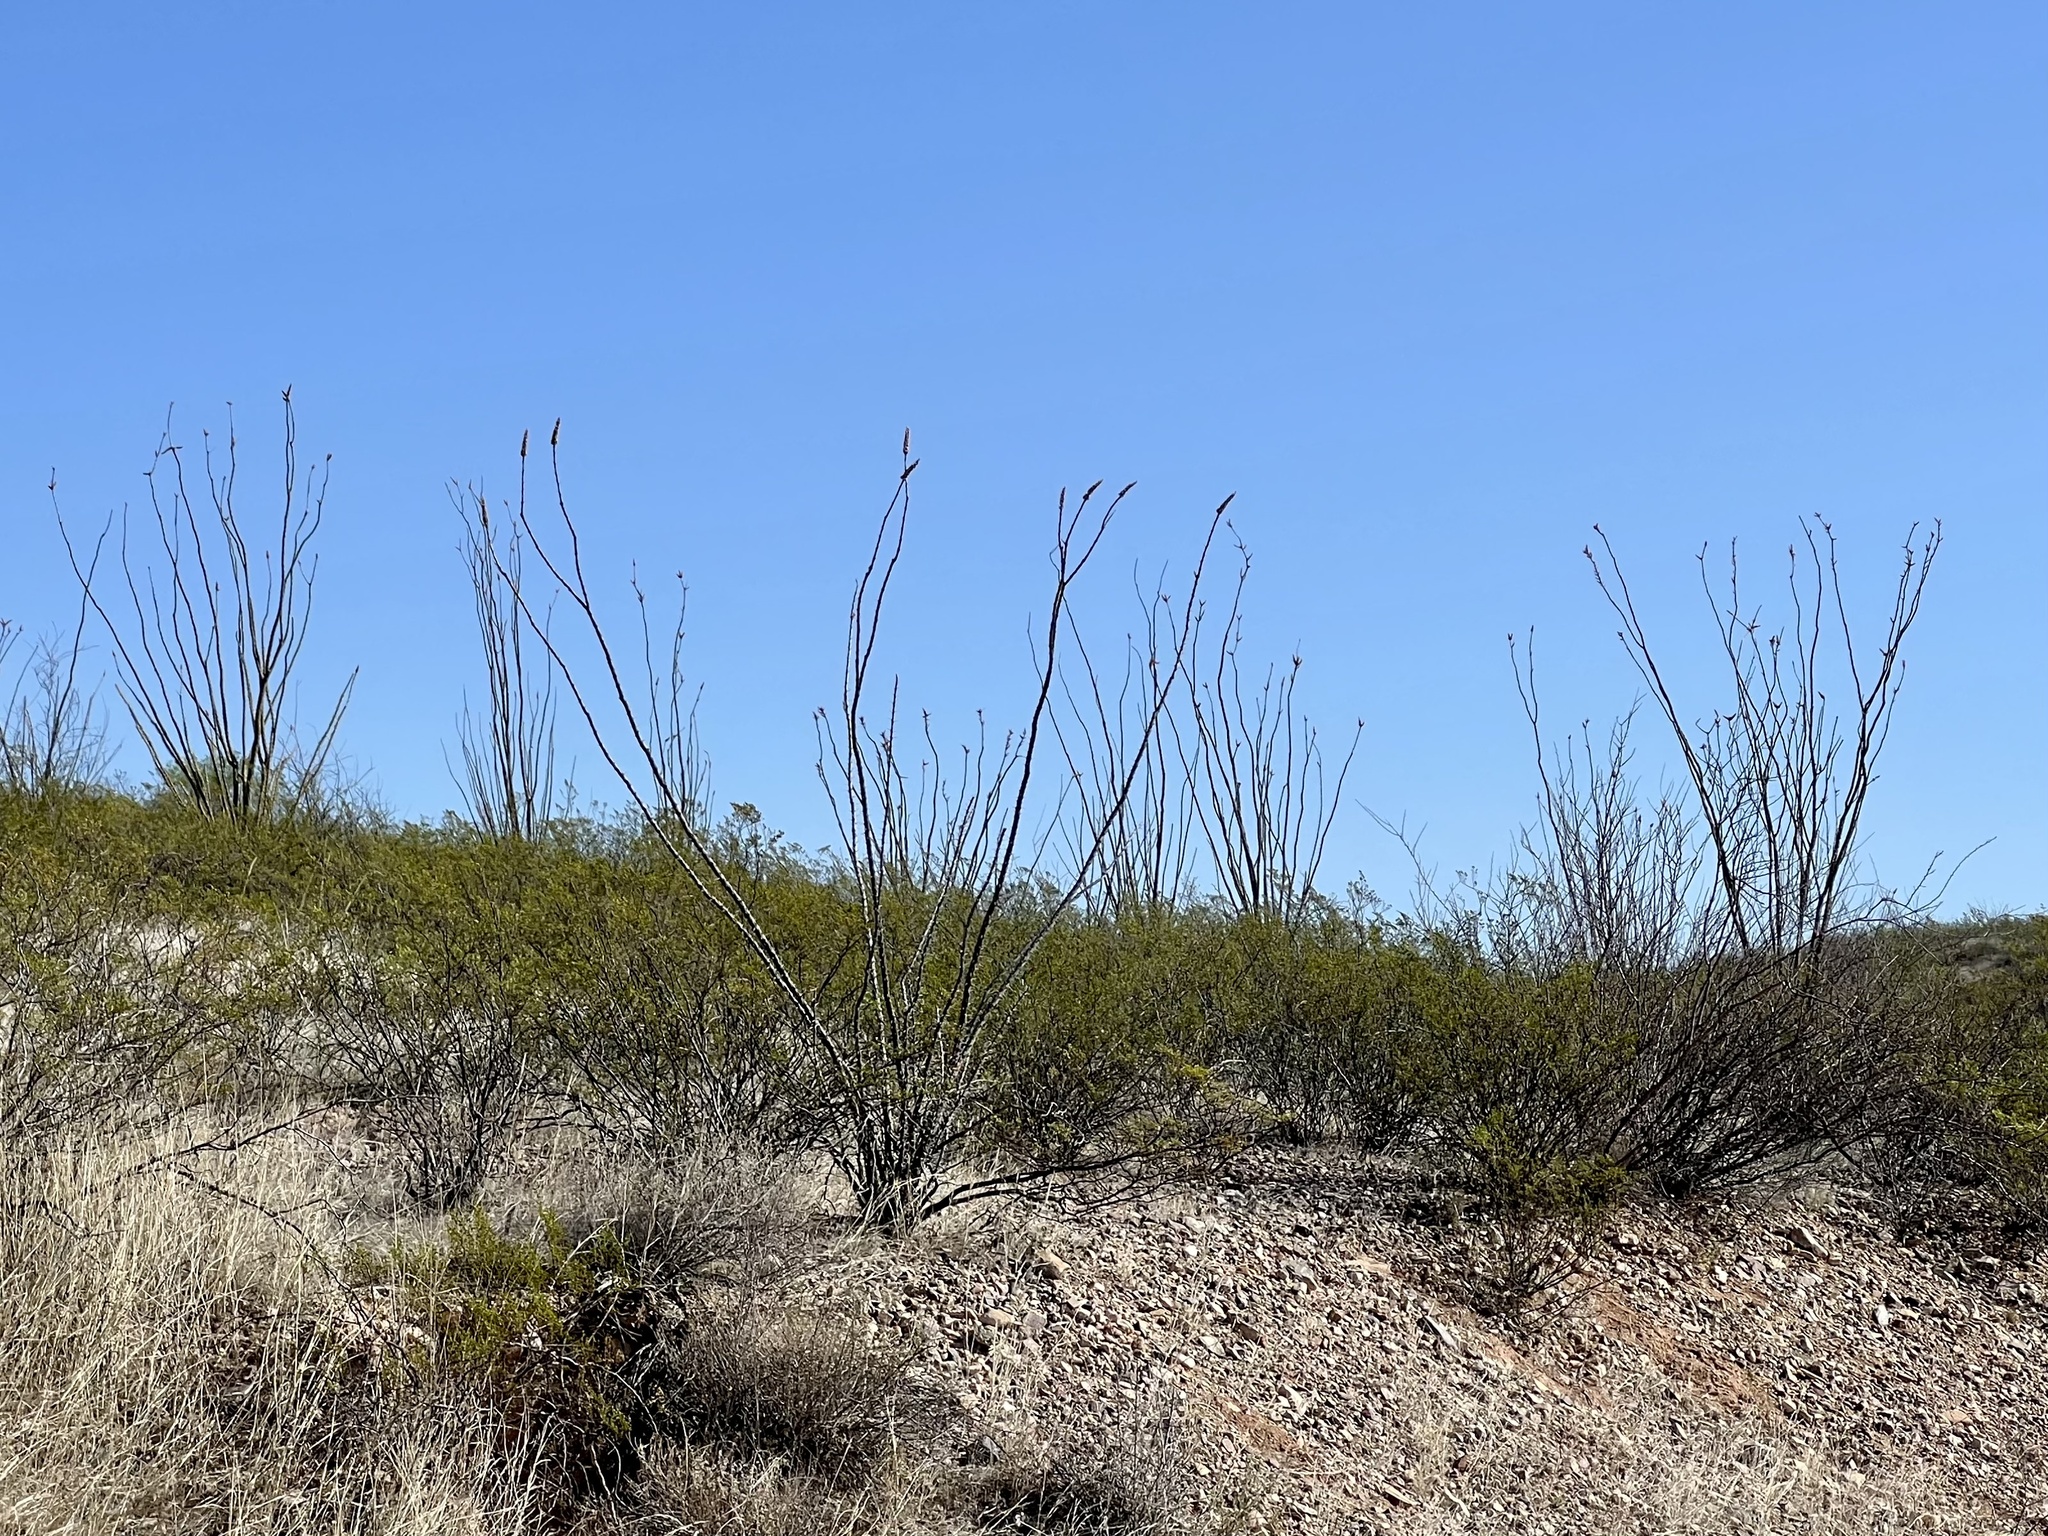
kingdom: Plantae
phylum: Tracheophyta
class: Magnoliopsida
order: Ericales
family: Fouquieriaceae
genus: Fouquieria
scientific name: Fouquieria splendens
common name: Vine-cactus
